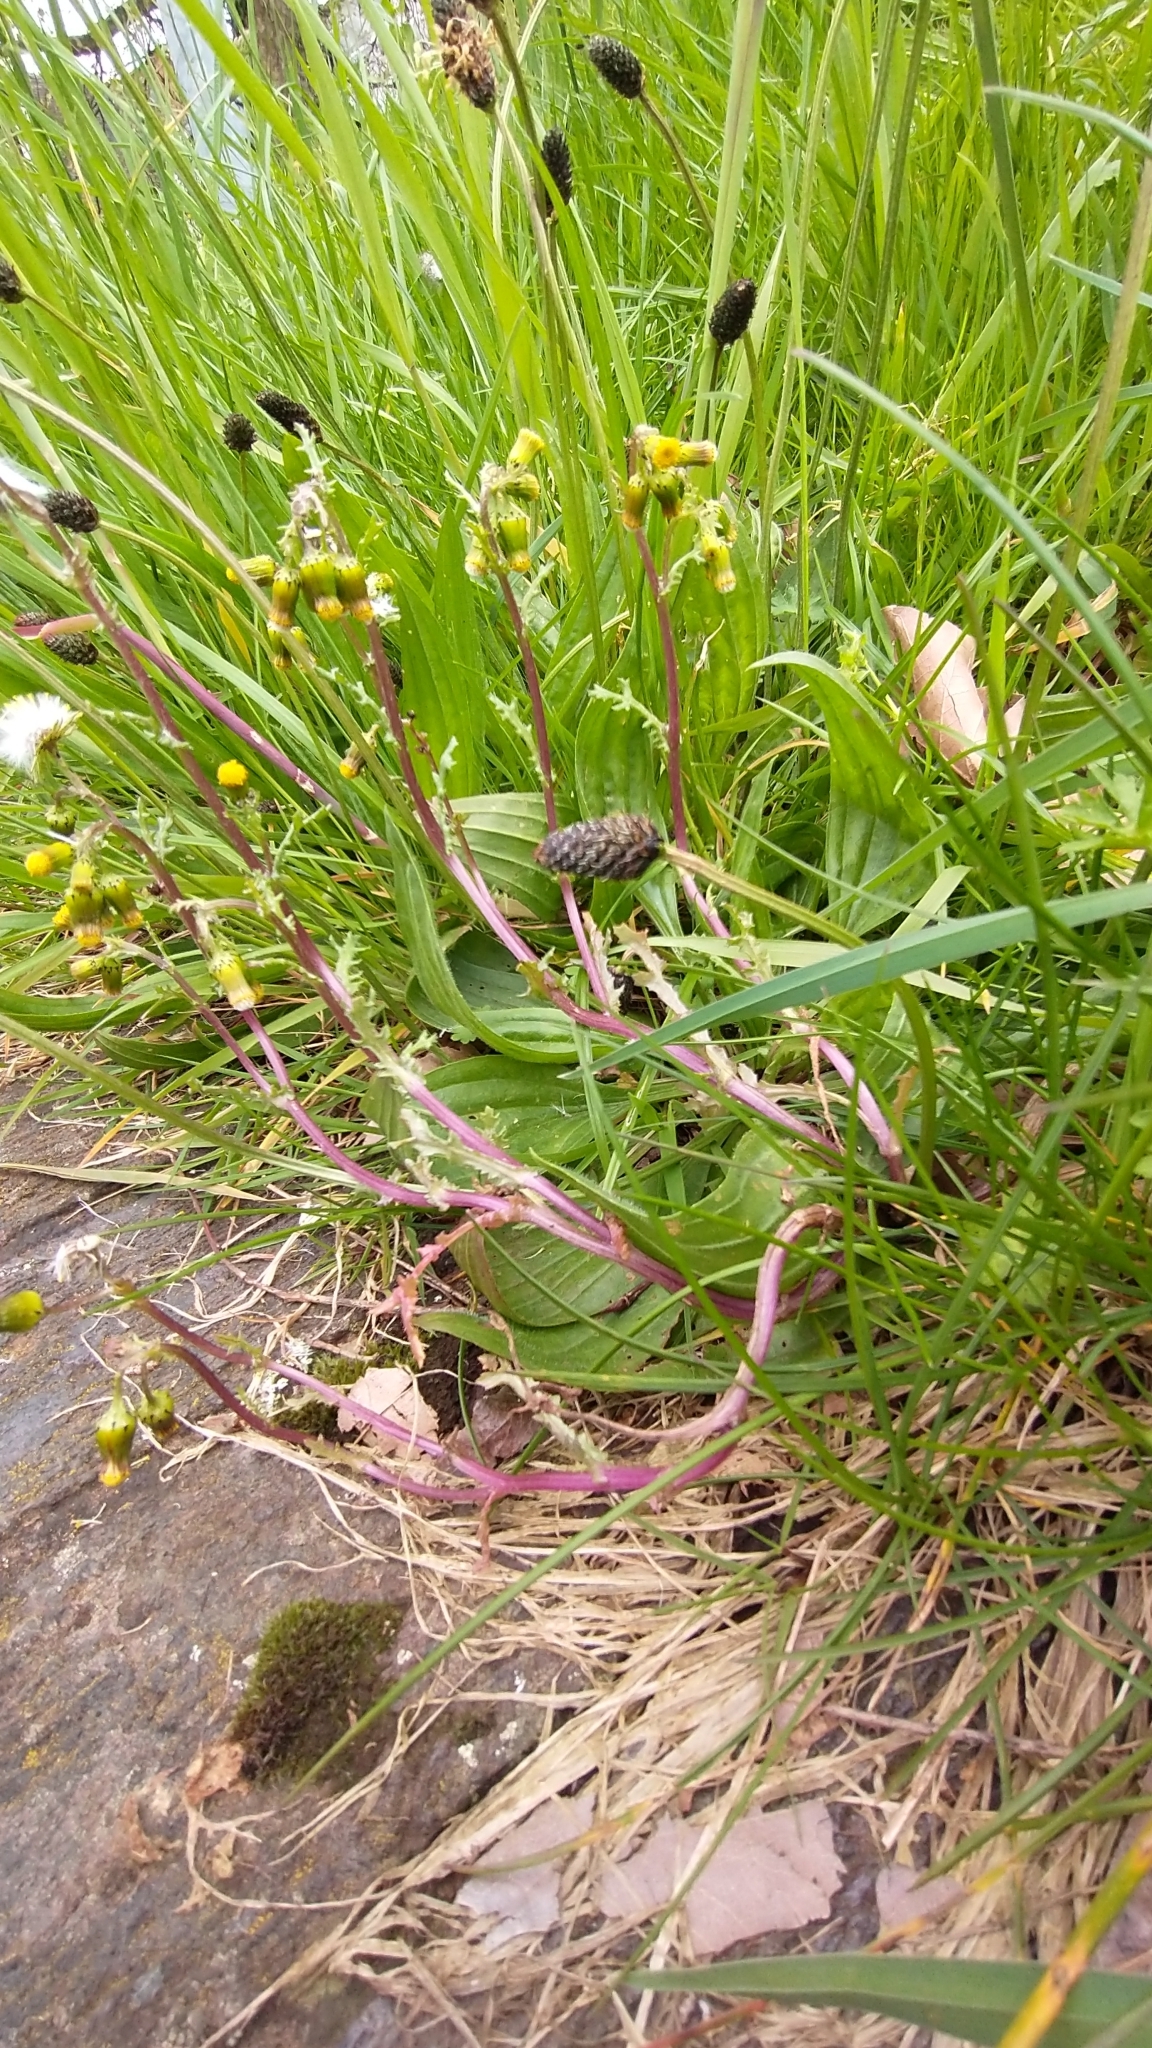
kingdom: Plantae
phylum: Tracheophyta
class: Magnoliopsida
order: Asterales
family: Asteraceae
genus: Senecio
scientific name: Senecio vulgaris
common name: Old-man-in-the-spring
